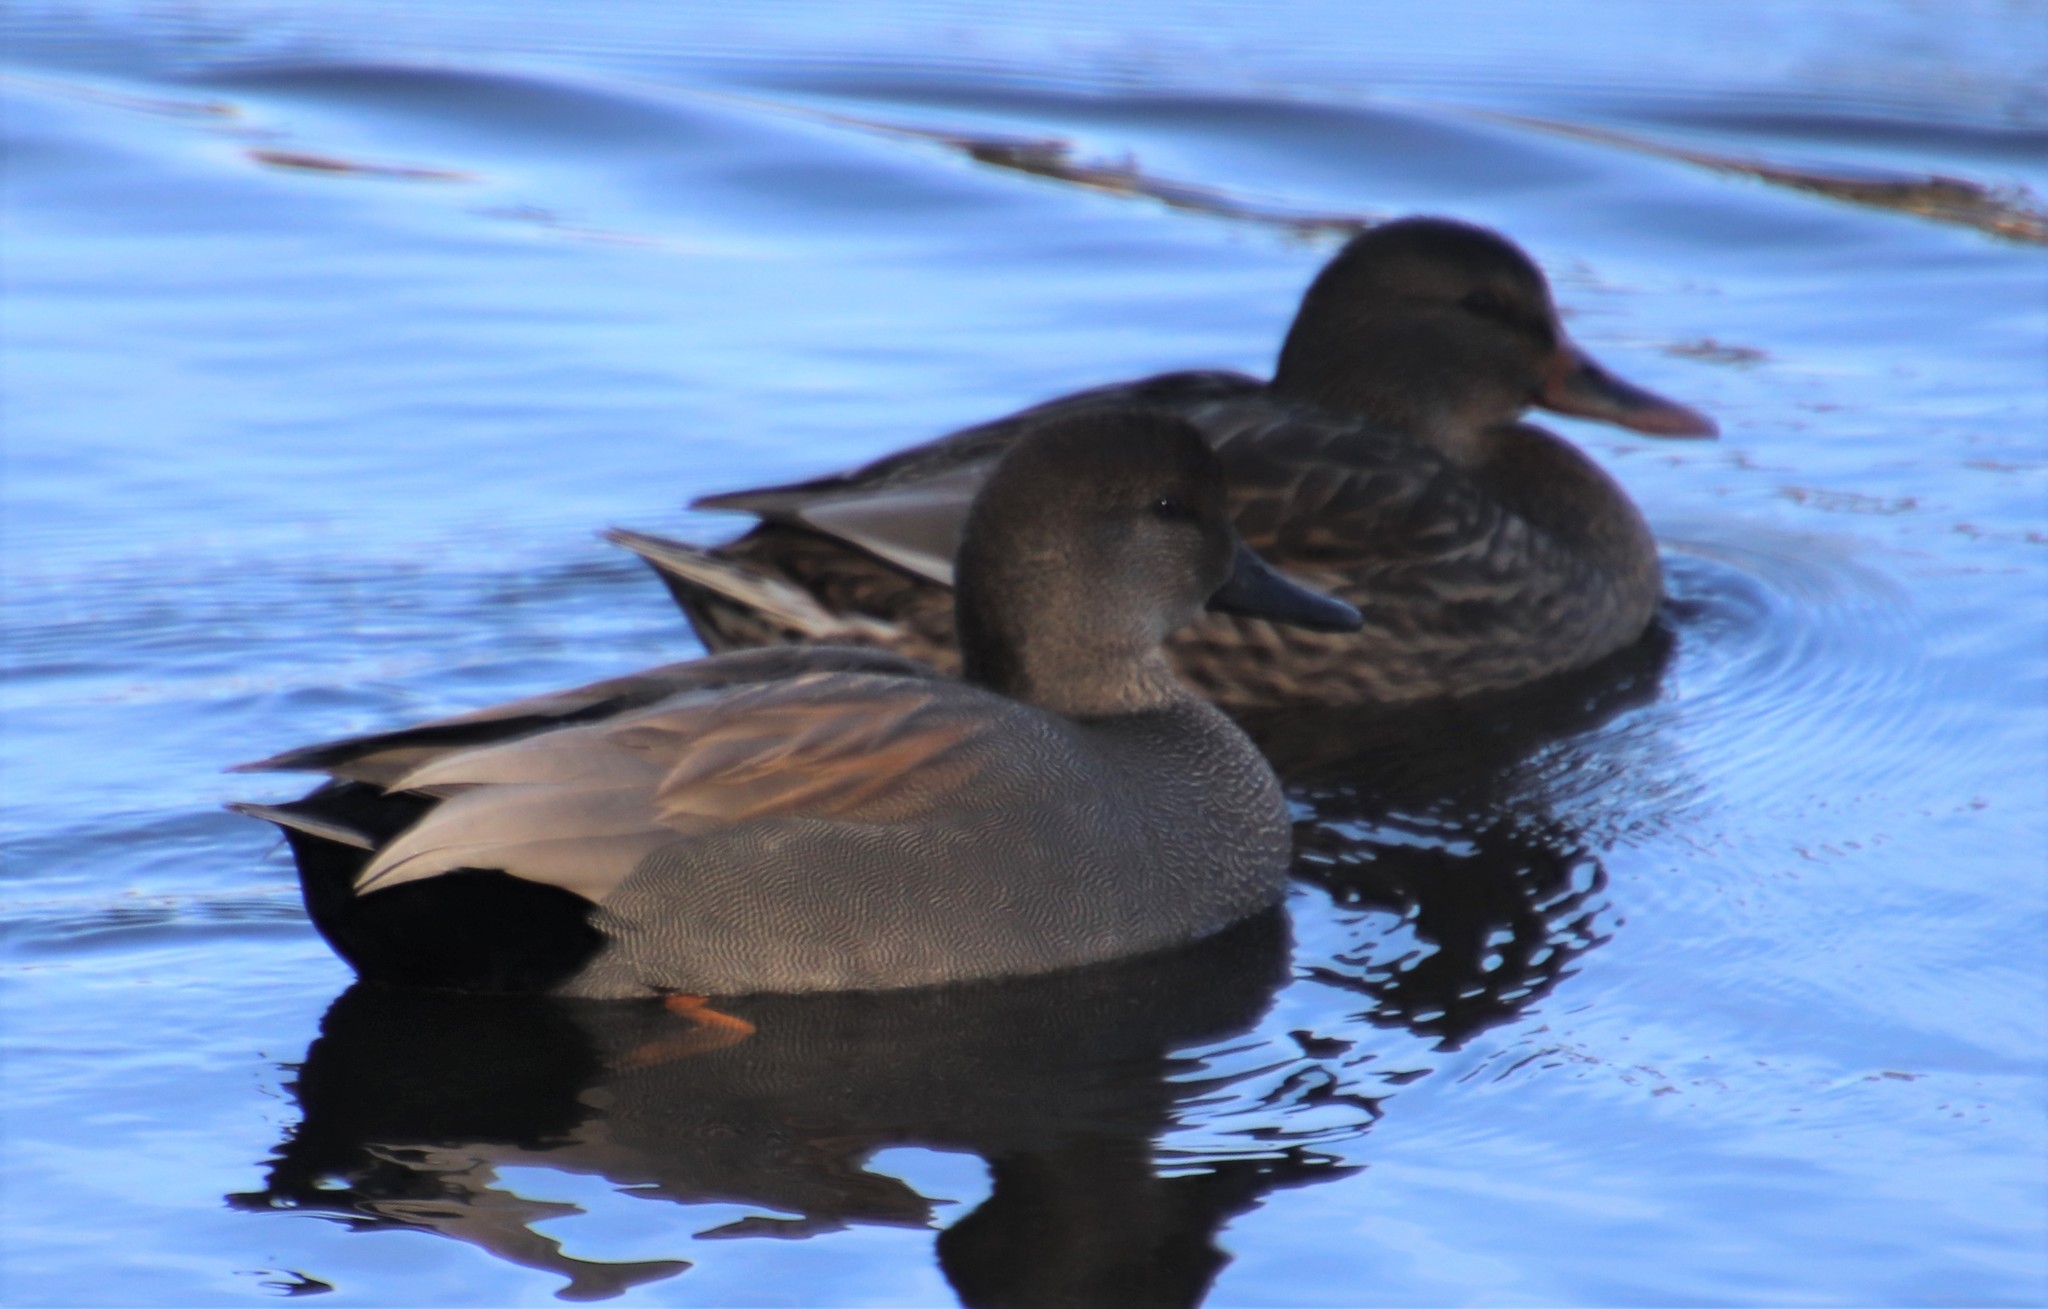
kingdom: Animalia
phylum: Chordata
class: Aves
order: Anseriformes
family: Anatidae
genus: Mareca
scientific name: Mareca strepera
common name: Gadwall
